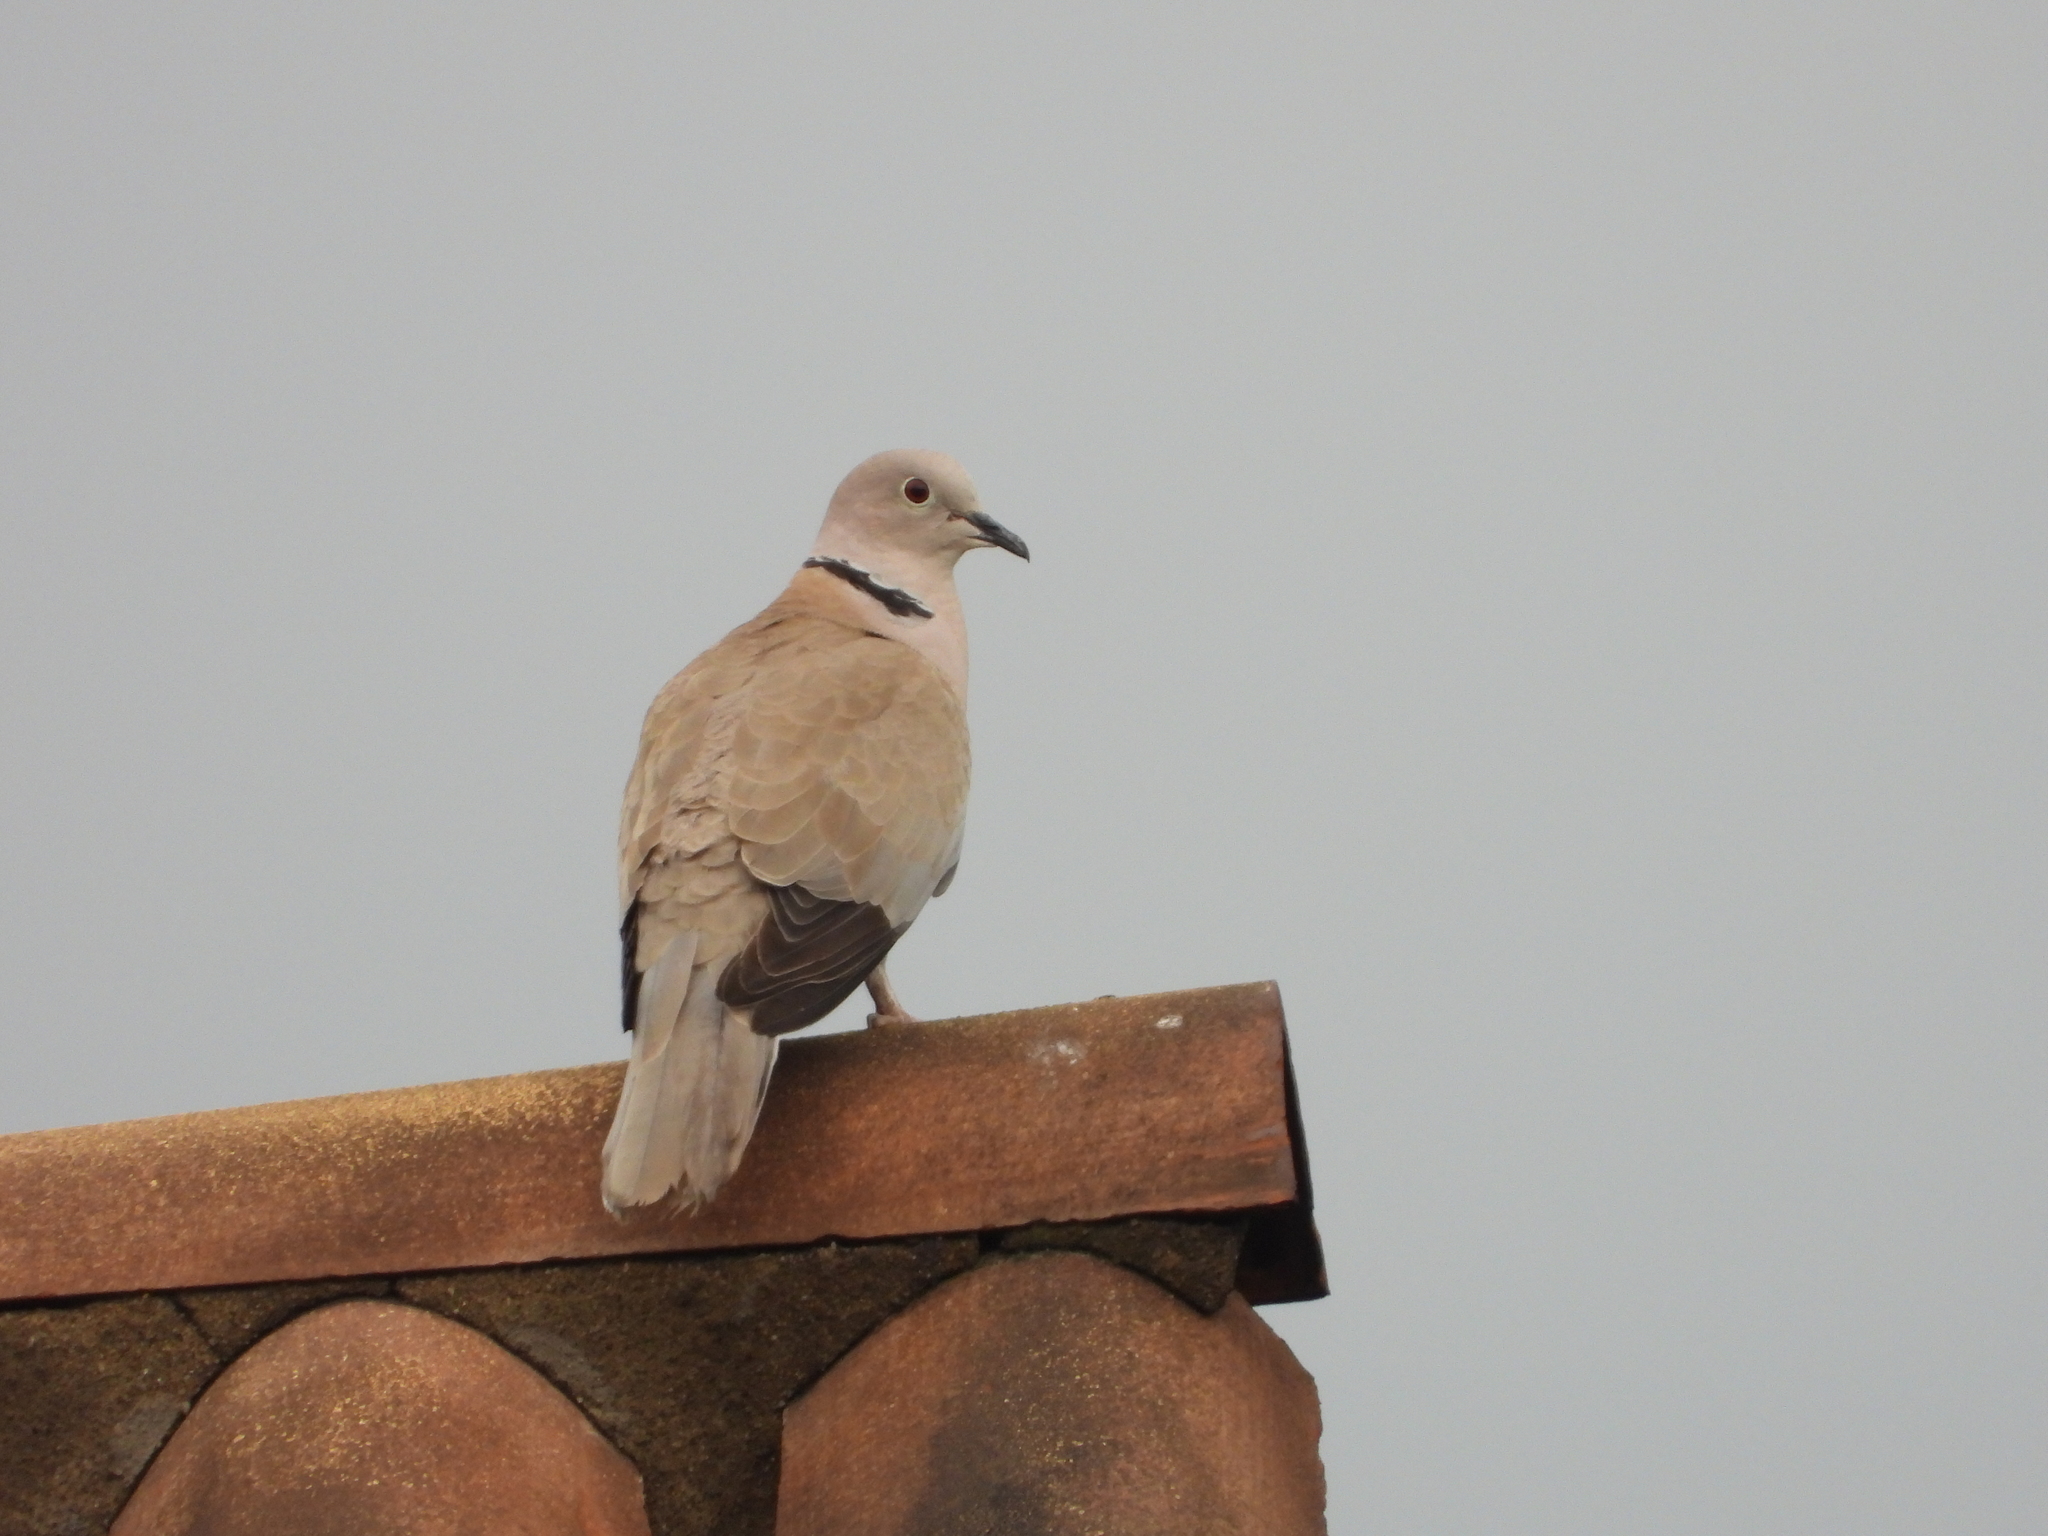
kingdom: Animalia
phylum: Chordata
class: Aves
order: Columbiformes
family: Columbidae
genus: Streptopelia
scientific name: Streptopelia decaocto
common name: Eurasian collared dove
